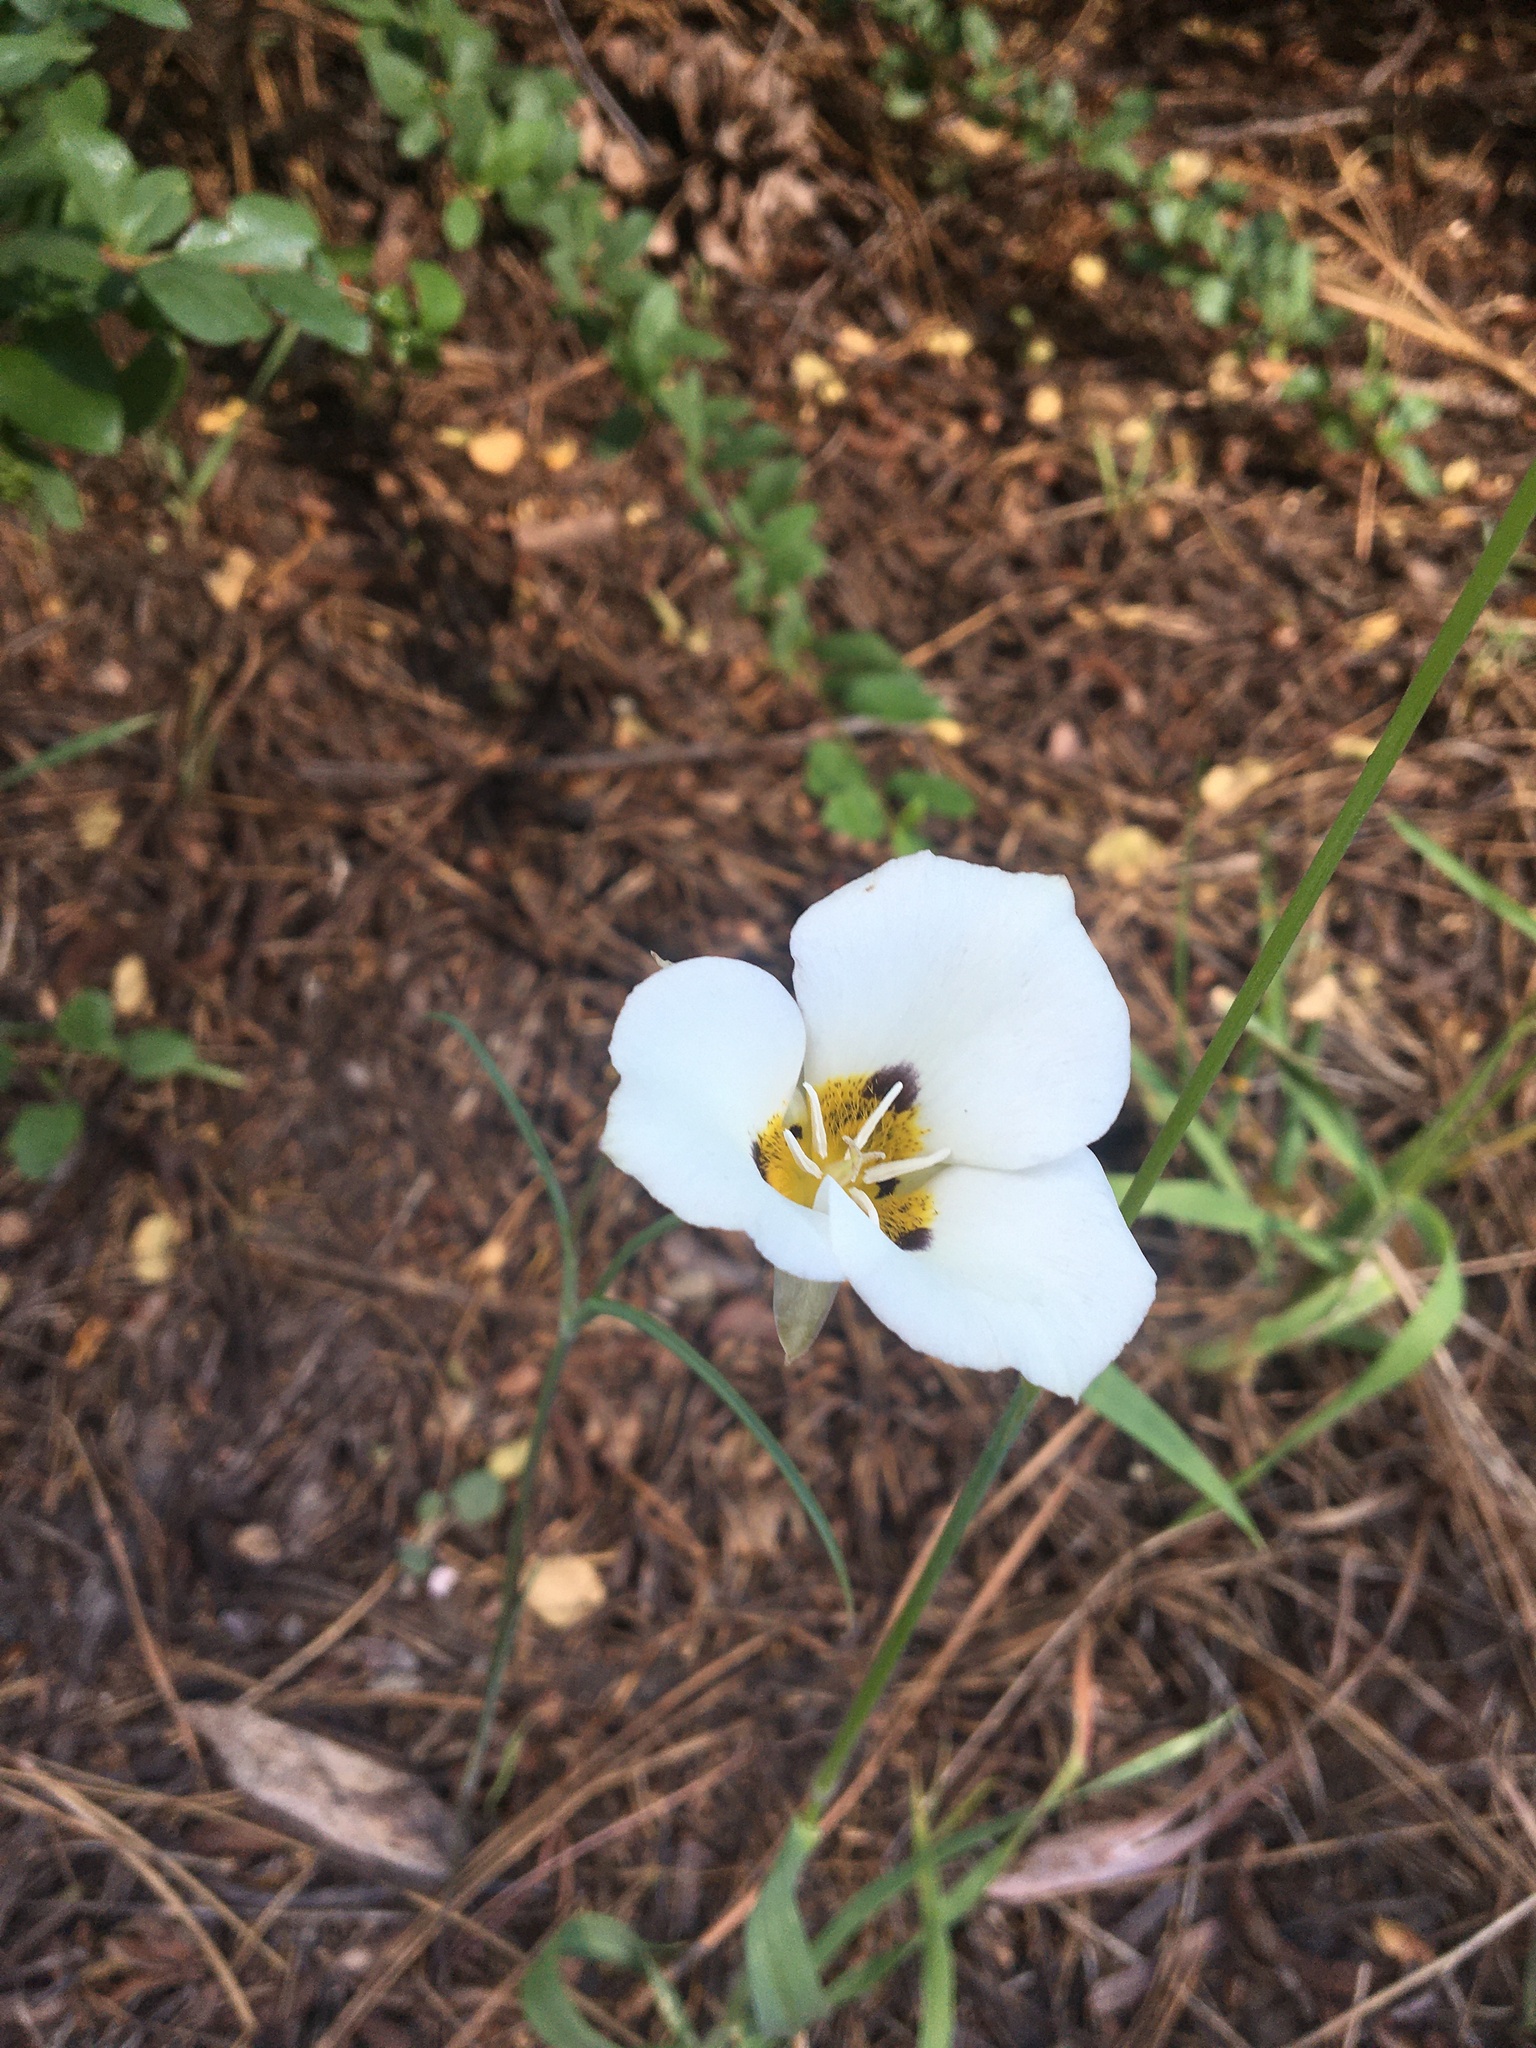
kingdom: Plantae
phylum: Tracheophyta
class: Liliopsida
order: Liliales
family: Liliaceae
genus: Calochortus
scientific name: Calochortus leichtlinii
